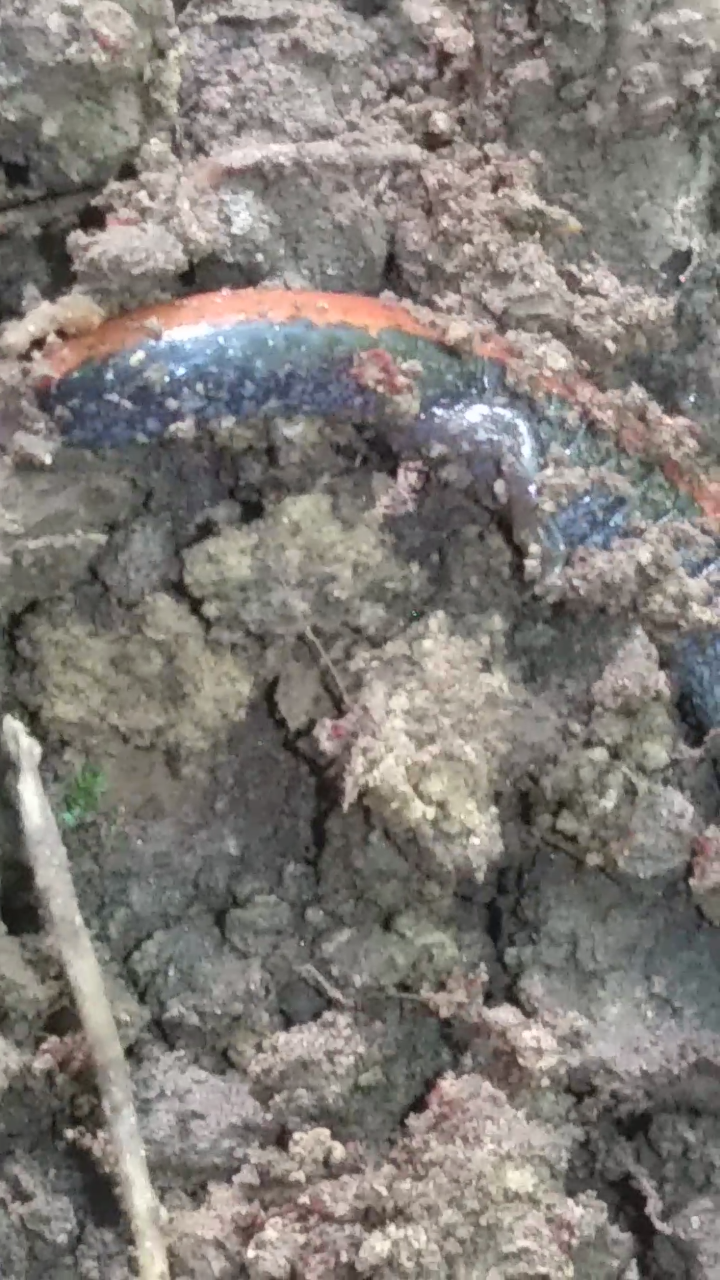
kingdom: Animalia
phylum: Chordata
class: Amphibia
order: Caudata
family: Plethodontidae
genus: Plethodon
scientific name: Plethodon cinereus
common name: Redback salamander
